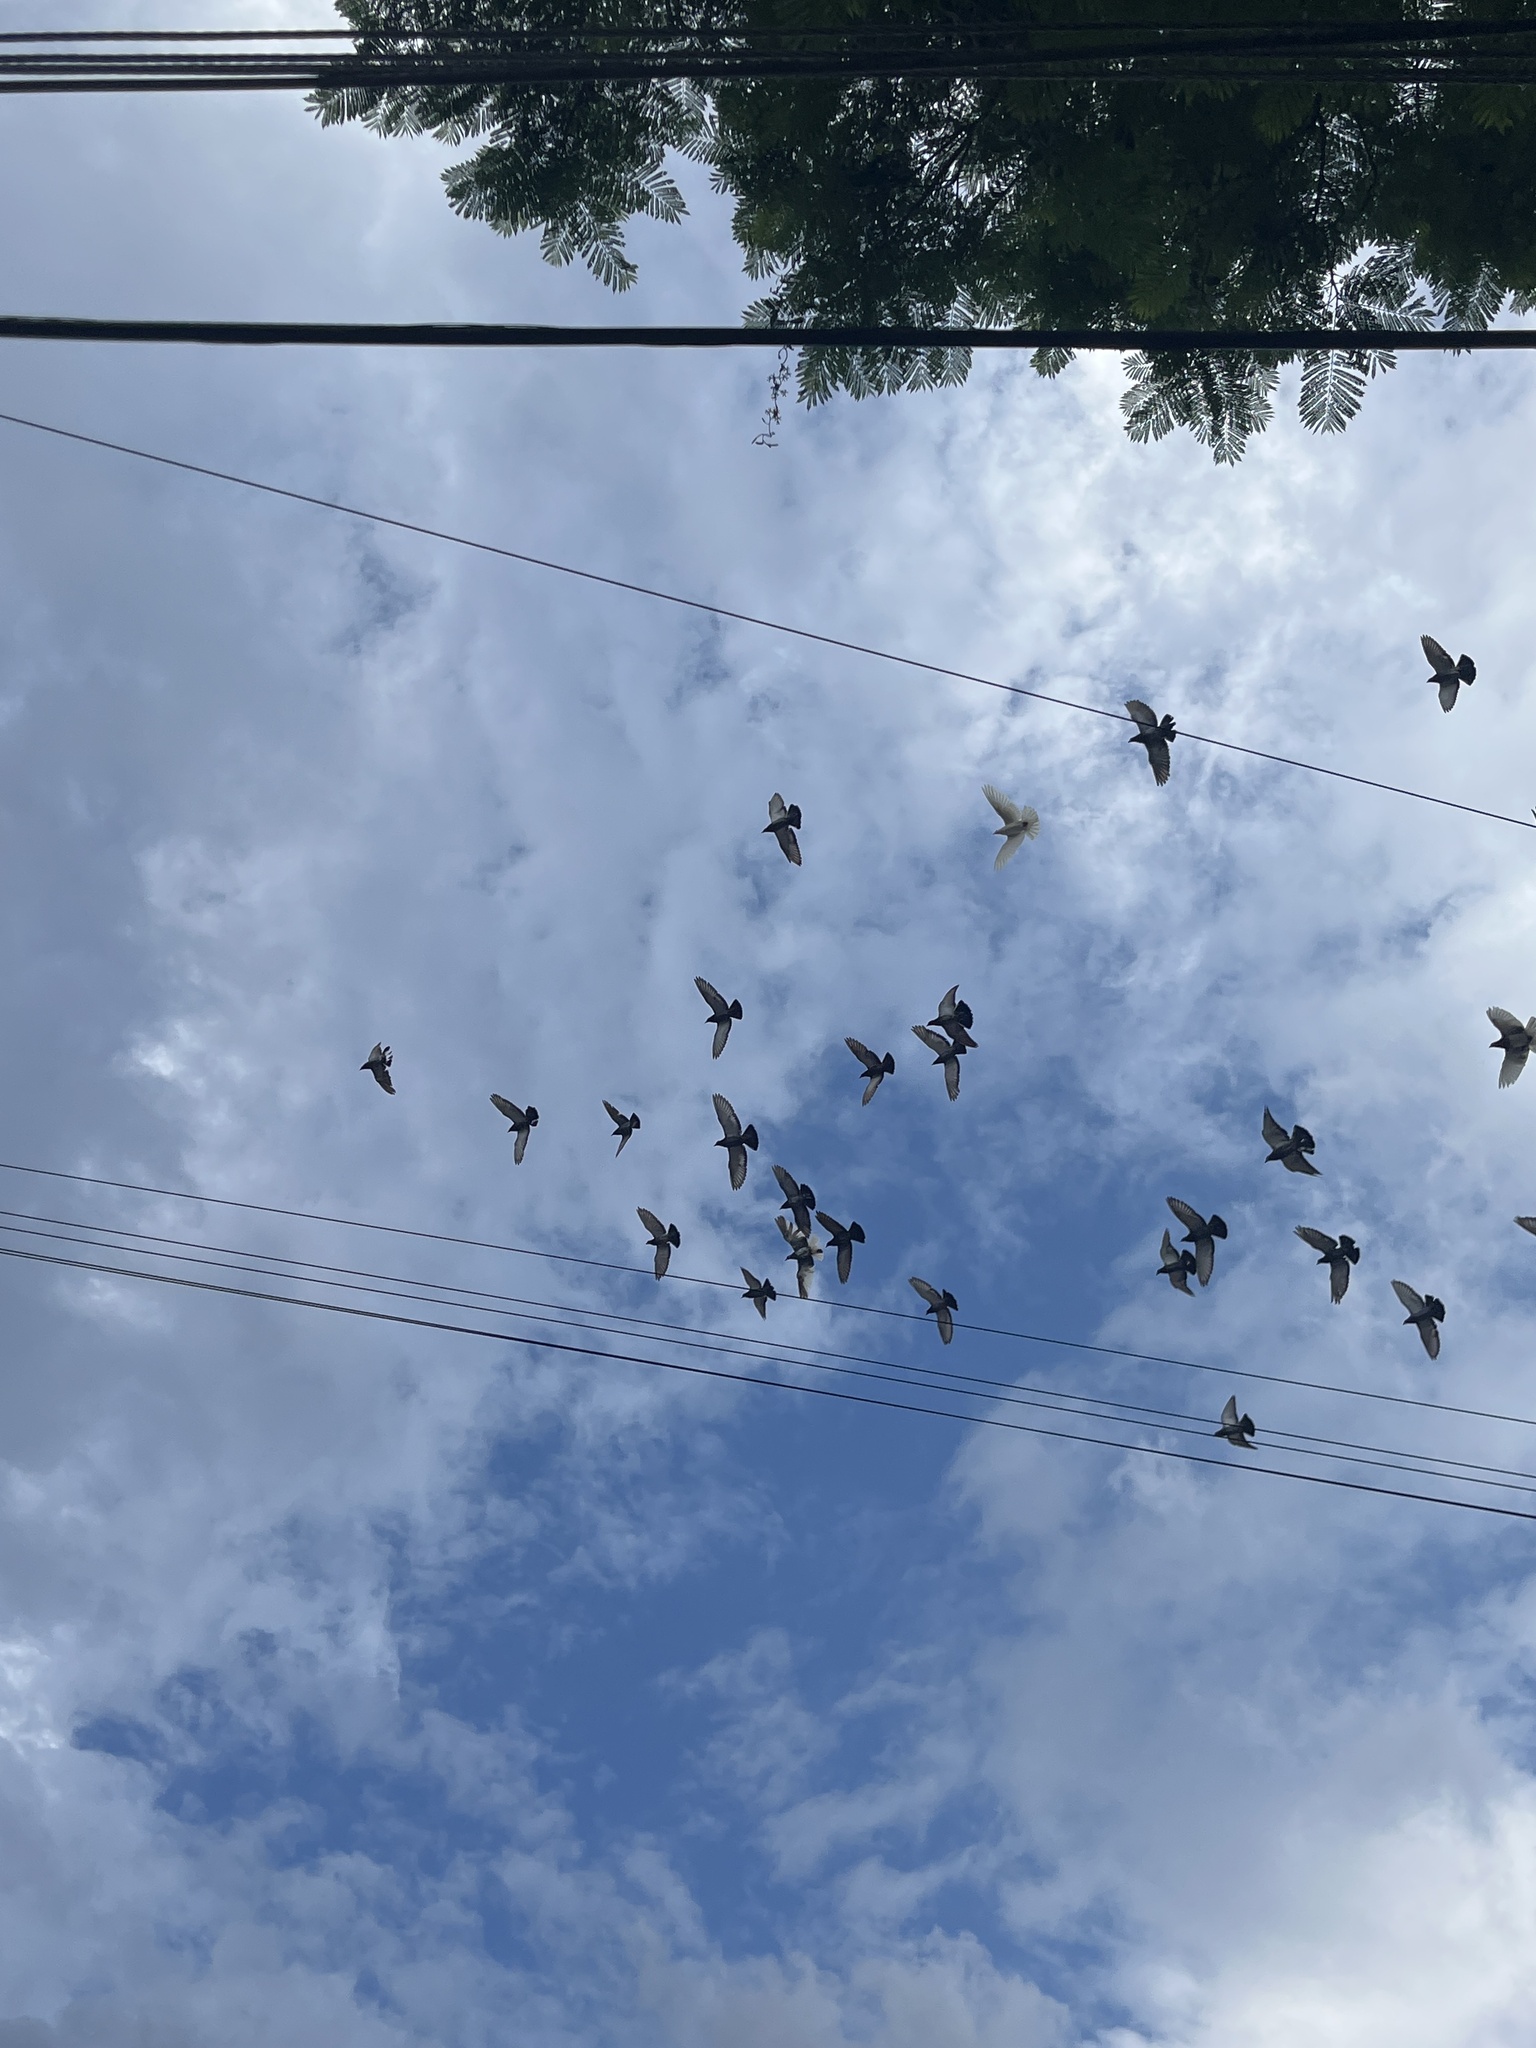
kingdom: Animalia
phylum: Chordata
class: Aves
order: Columbiformes
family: Columbidae
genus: Columba
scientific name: Columba livia
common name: Rock pigeon
